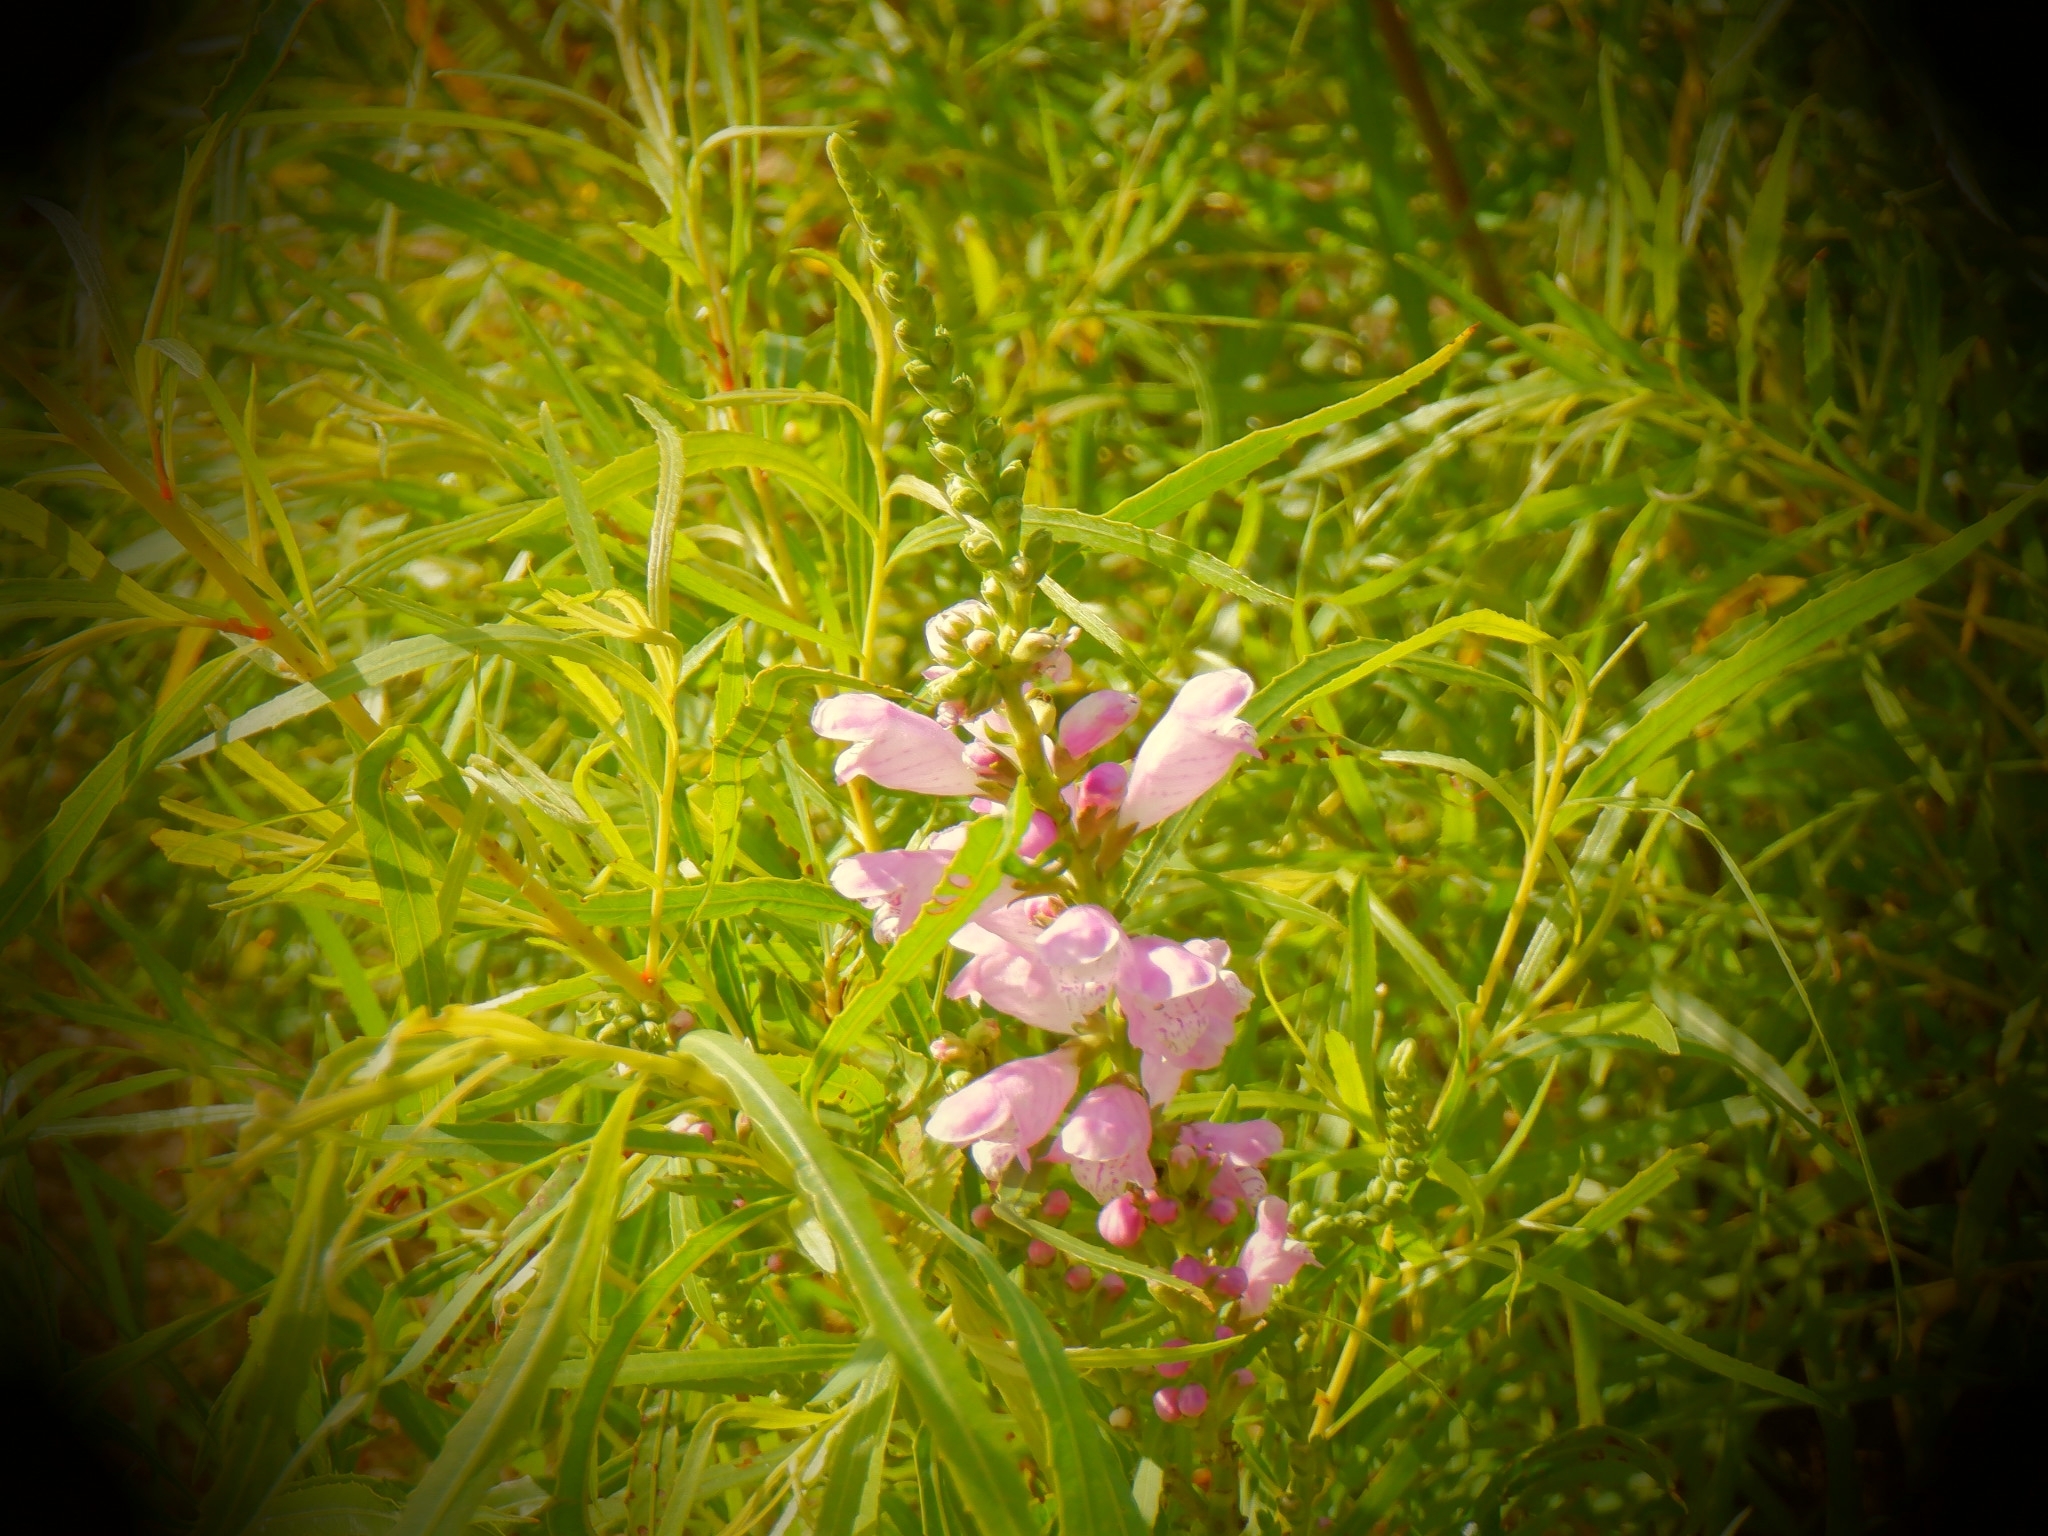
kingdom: Plantae
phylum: Tracheophyta
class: Magnoliopsida
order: Lamiales
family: Lamiaceae
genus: Physostegia
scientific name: Physostegia virginiana
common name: Obedient-plant
